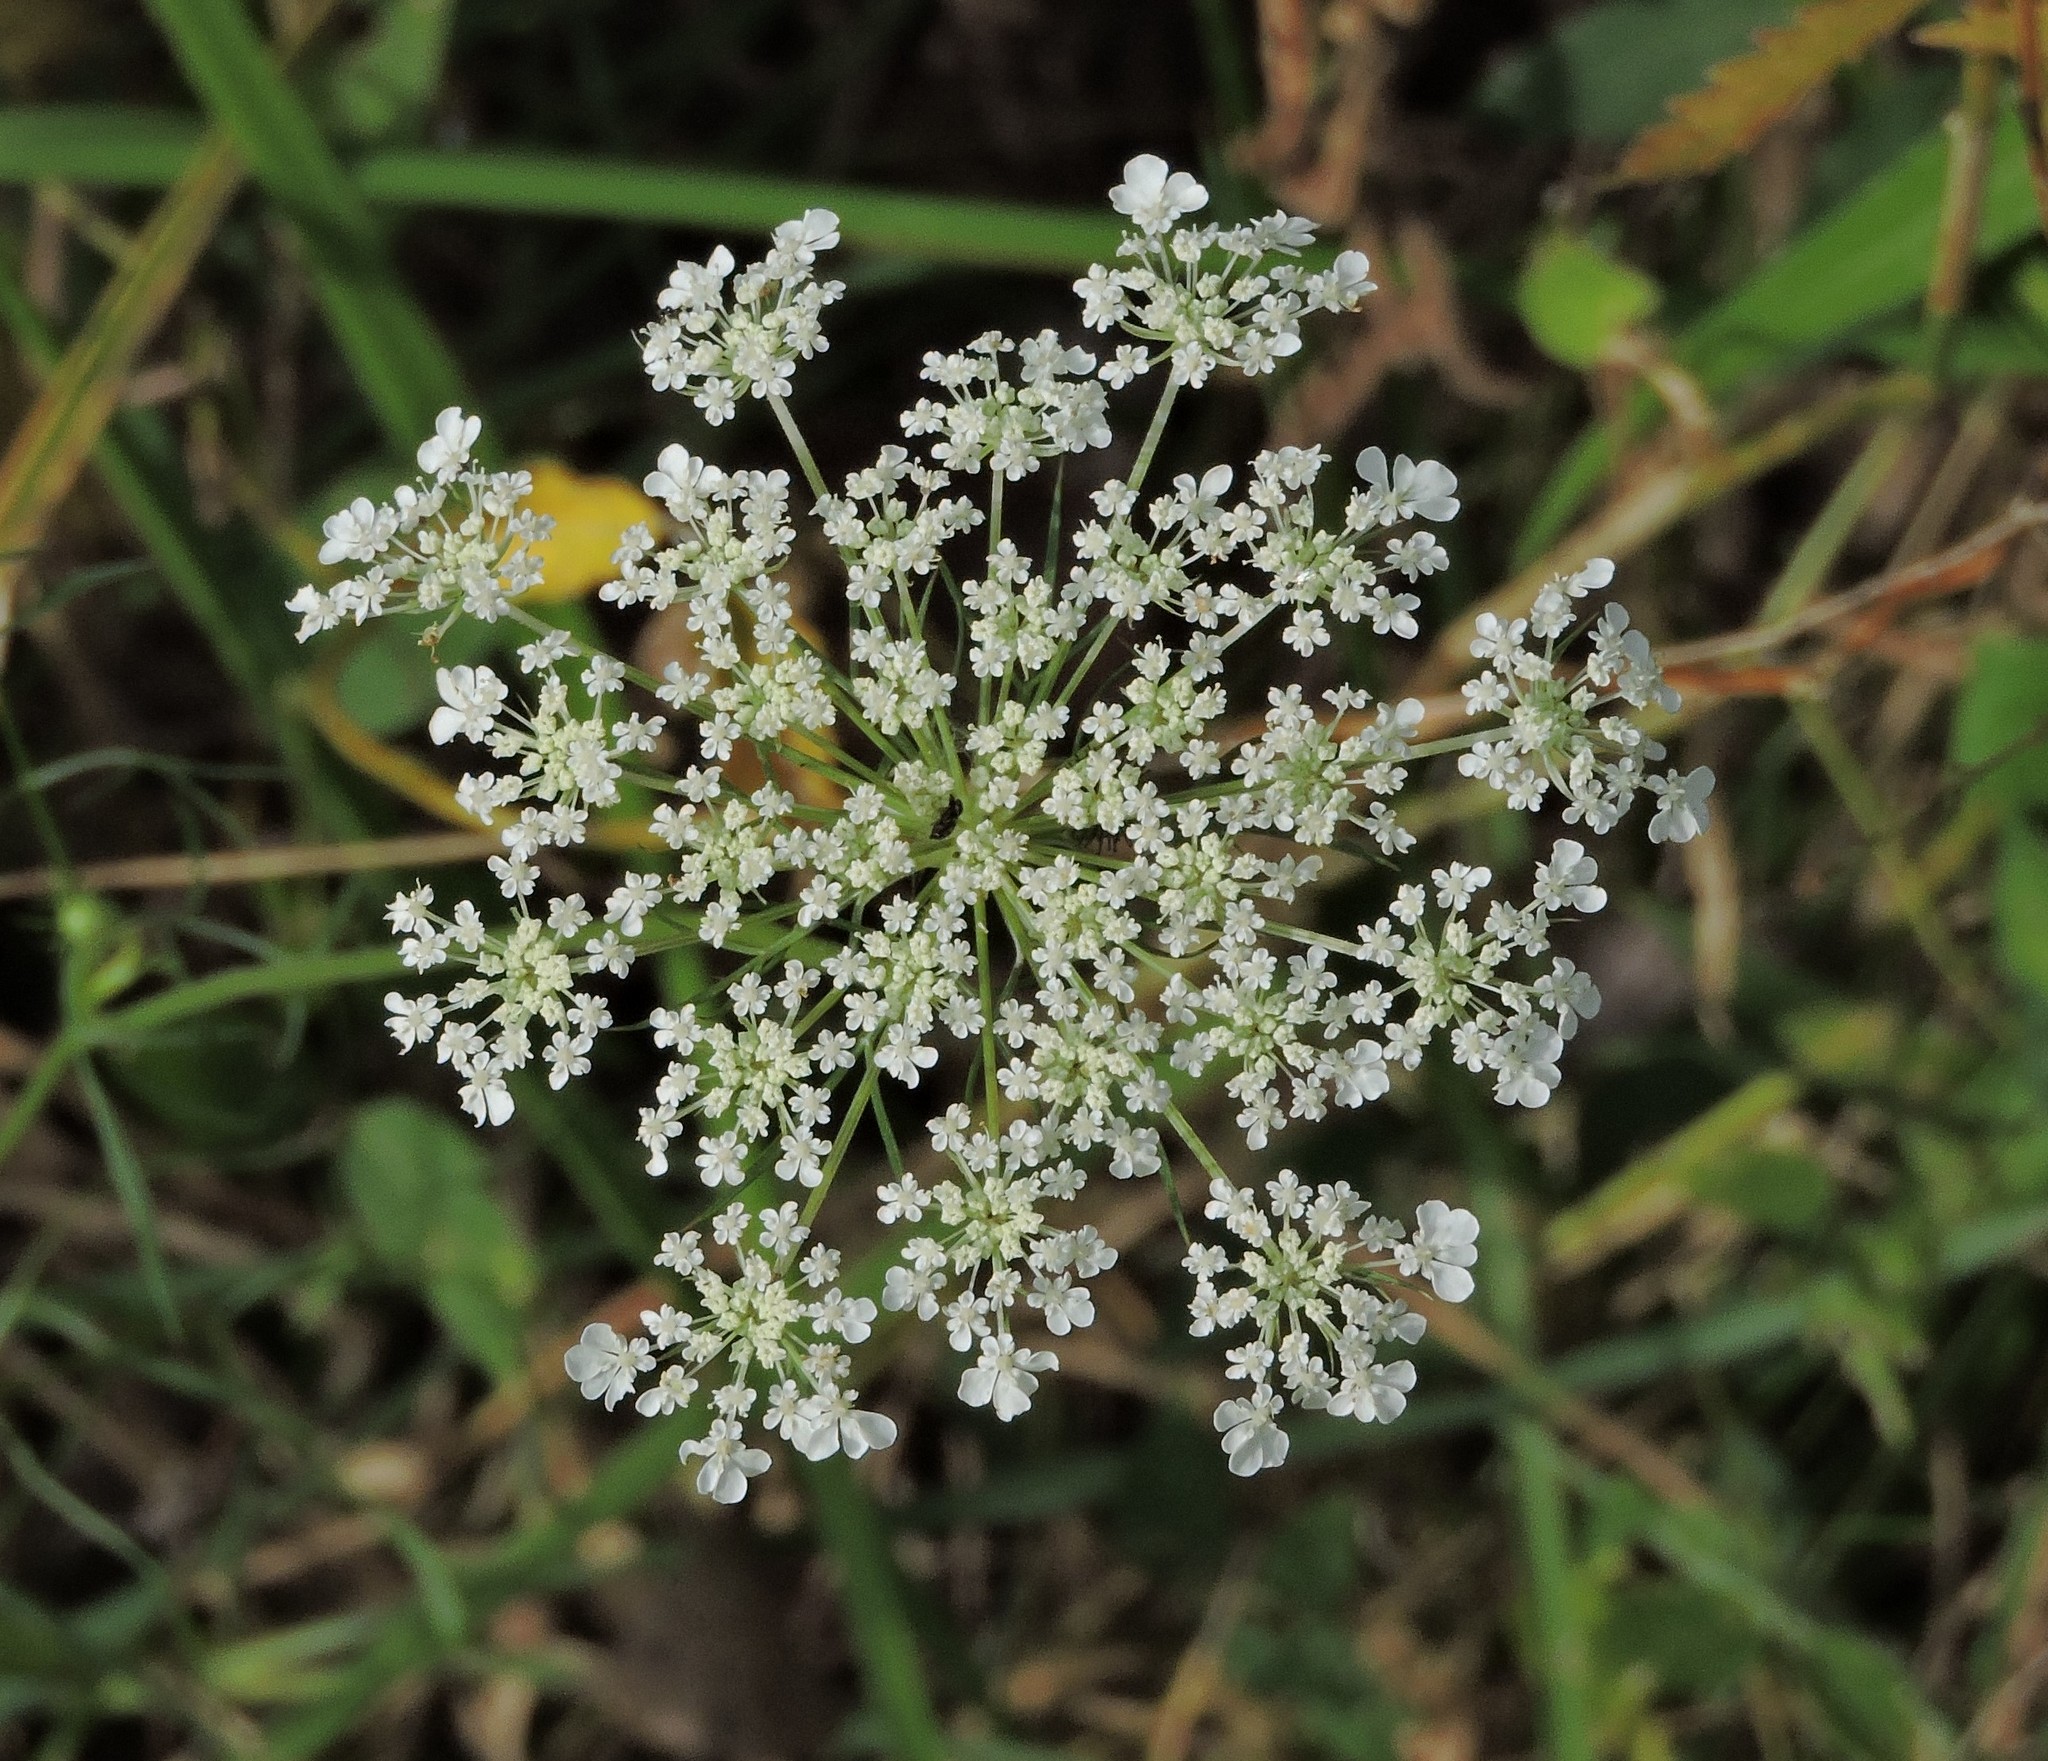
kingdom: Plantae
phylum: Tracheophyta
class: Magnoliopsida
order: Apiales
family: Apiaceae
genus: Daucus
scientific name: Daucus carota
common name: Wild carrot
